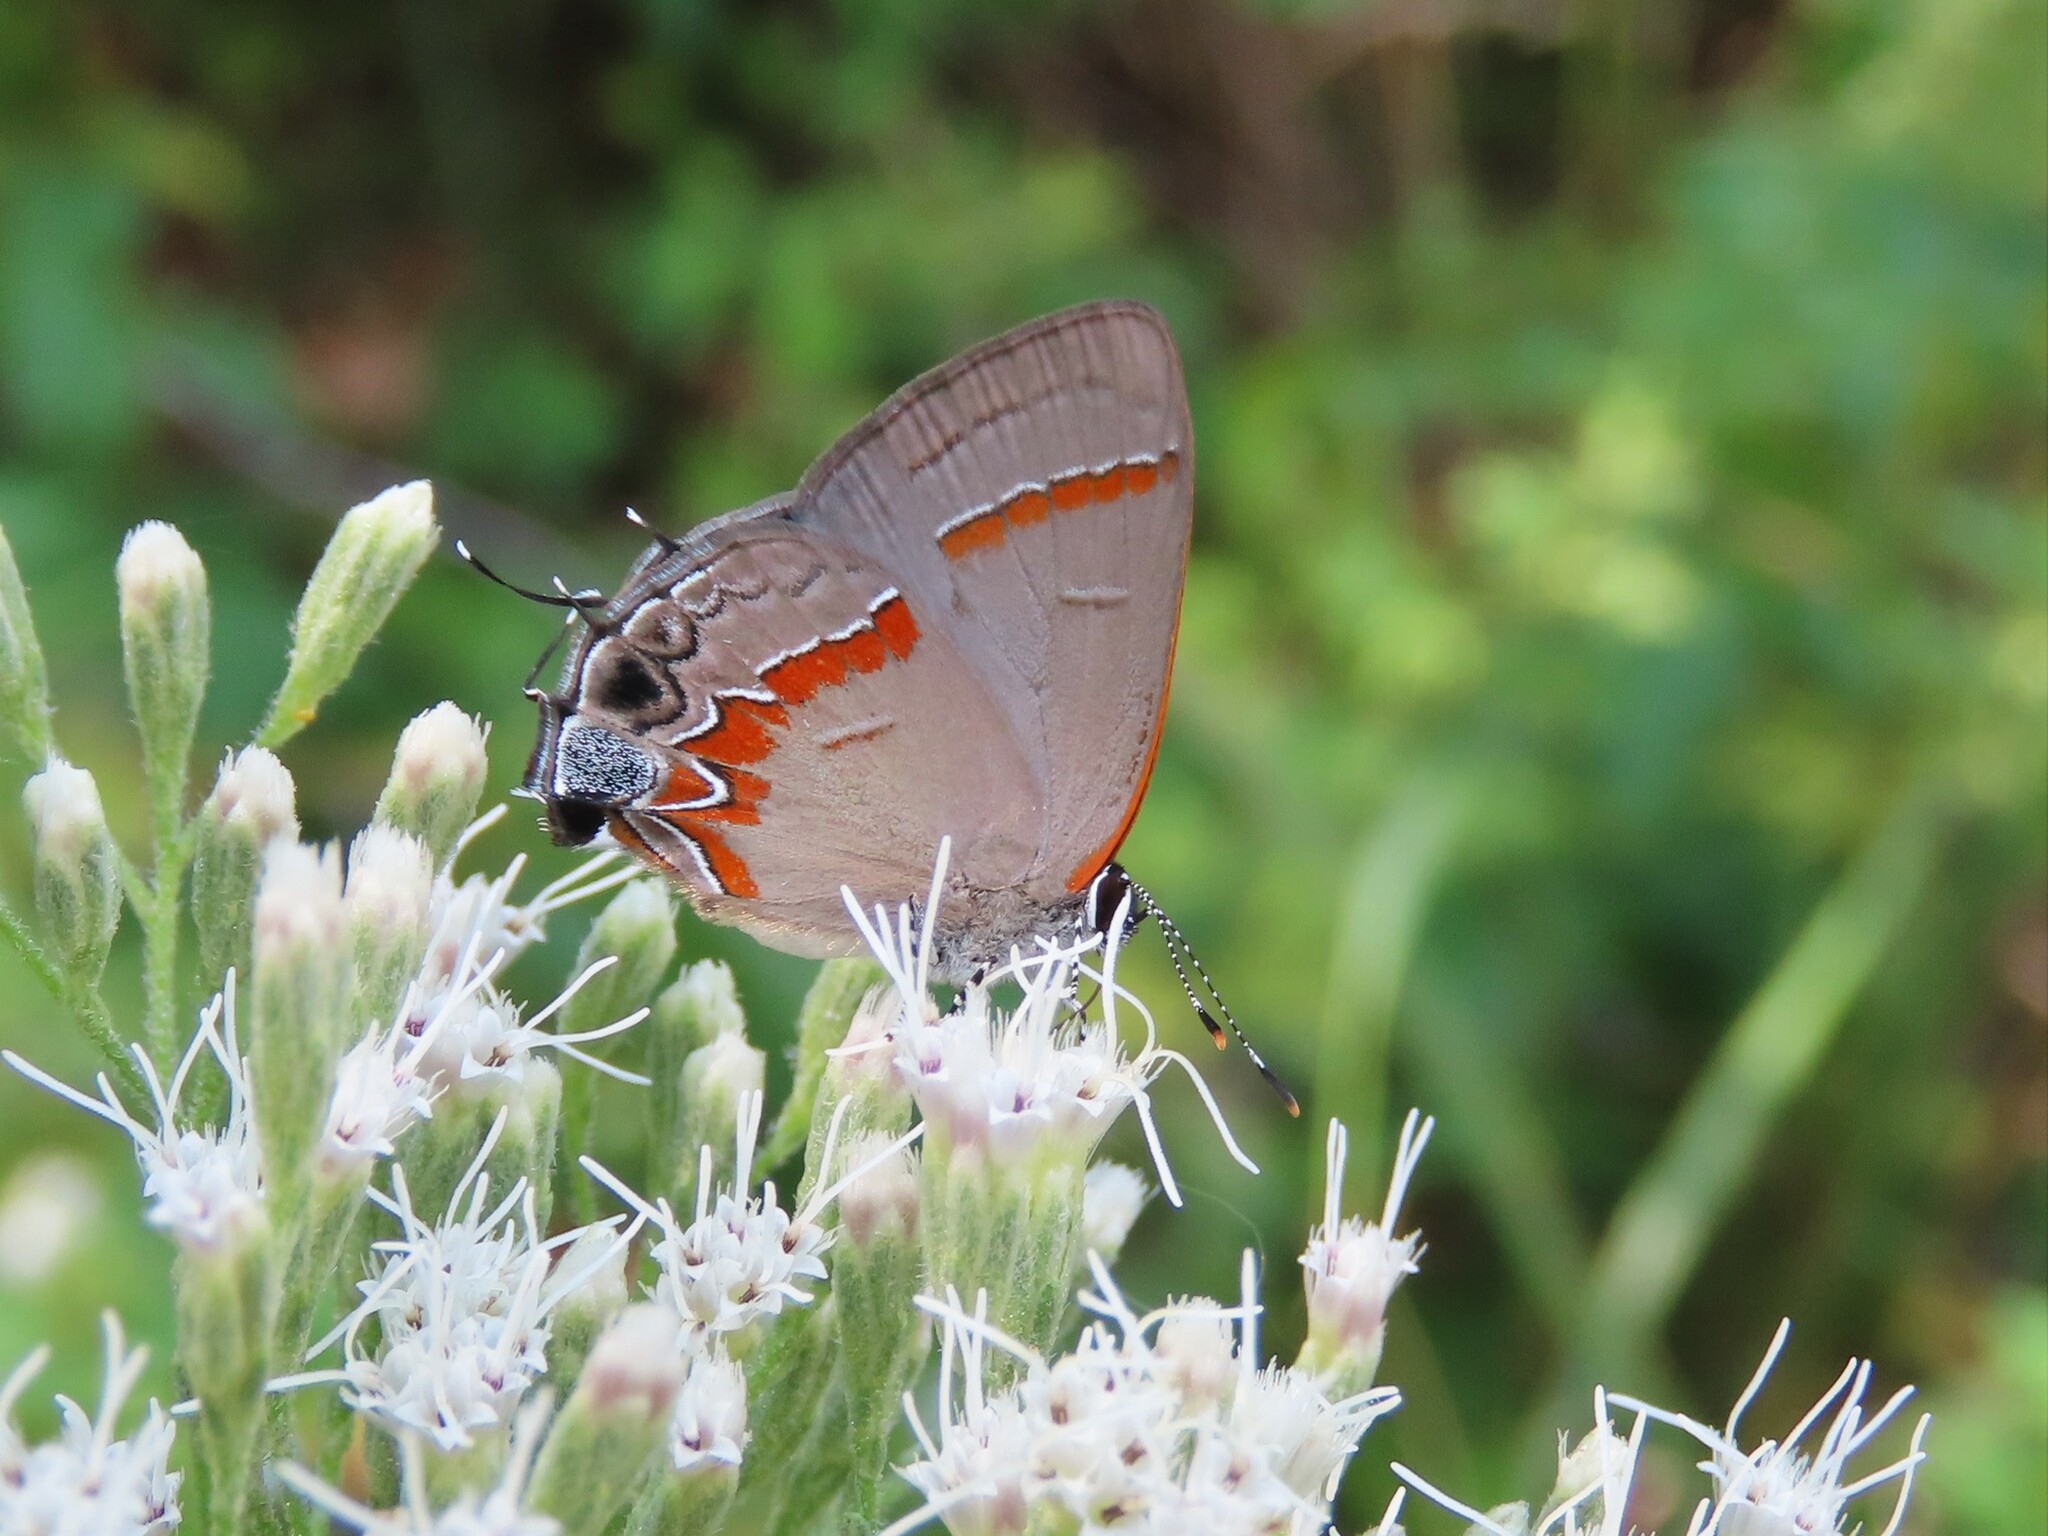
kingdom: Animalia
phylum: Arthropoda
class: Insecta
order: Lepidoptera
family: Lycaenidae
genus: Calycopis
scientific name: Calycopis cecrops
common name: Red-banded hairstreak
